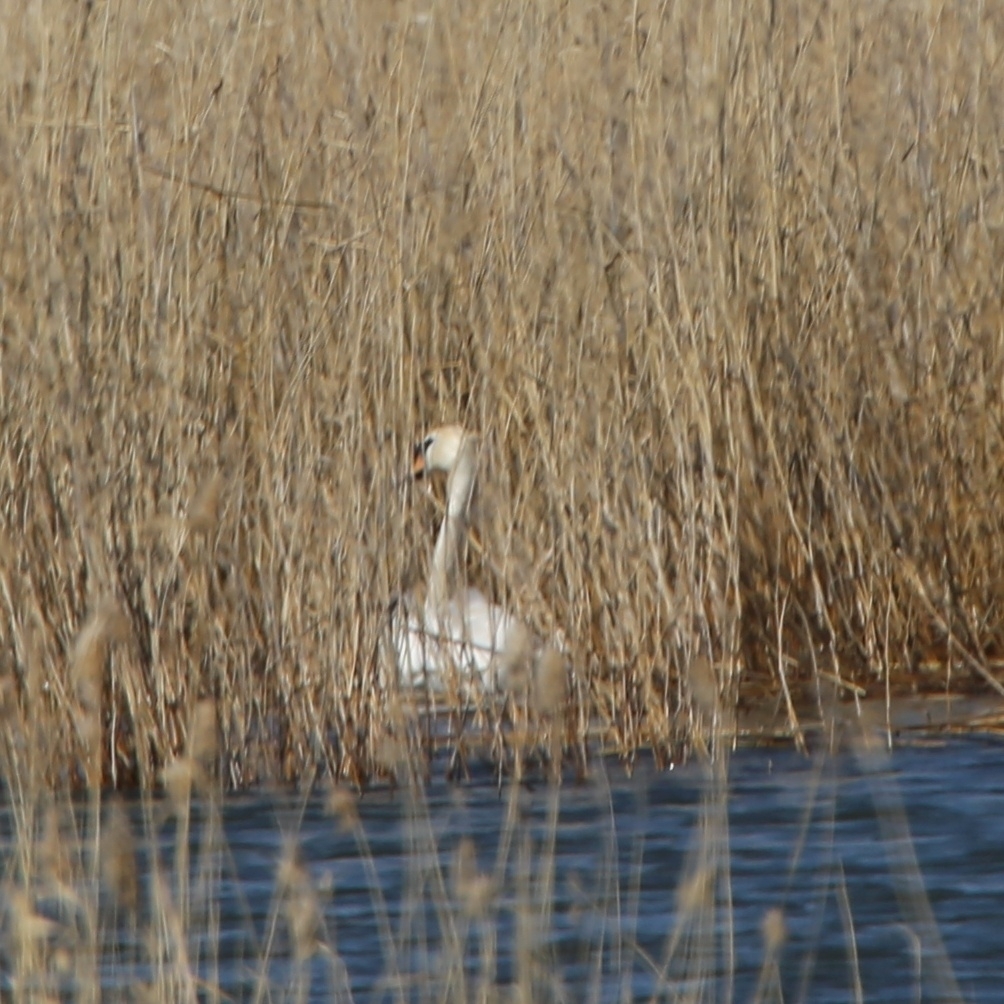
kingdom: Animalia
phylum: Chordata
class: Aves
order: Anseriformes
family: Anatidae
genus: Cygnus
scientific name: Cygnus olor
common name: Mute swan
